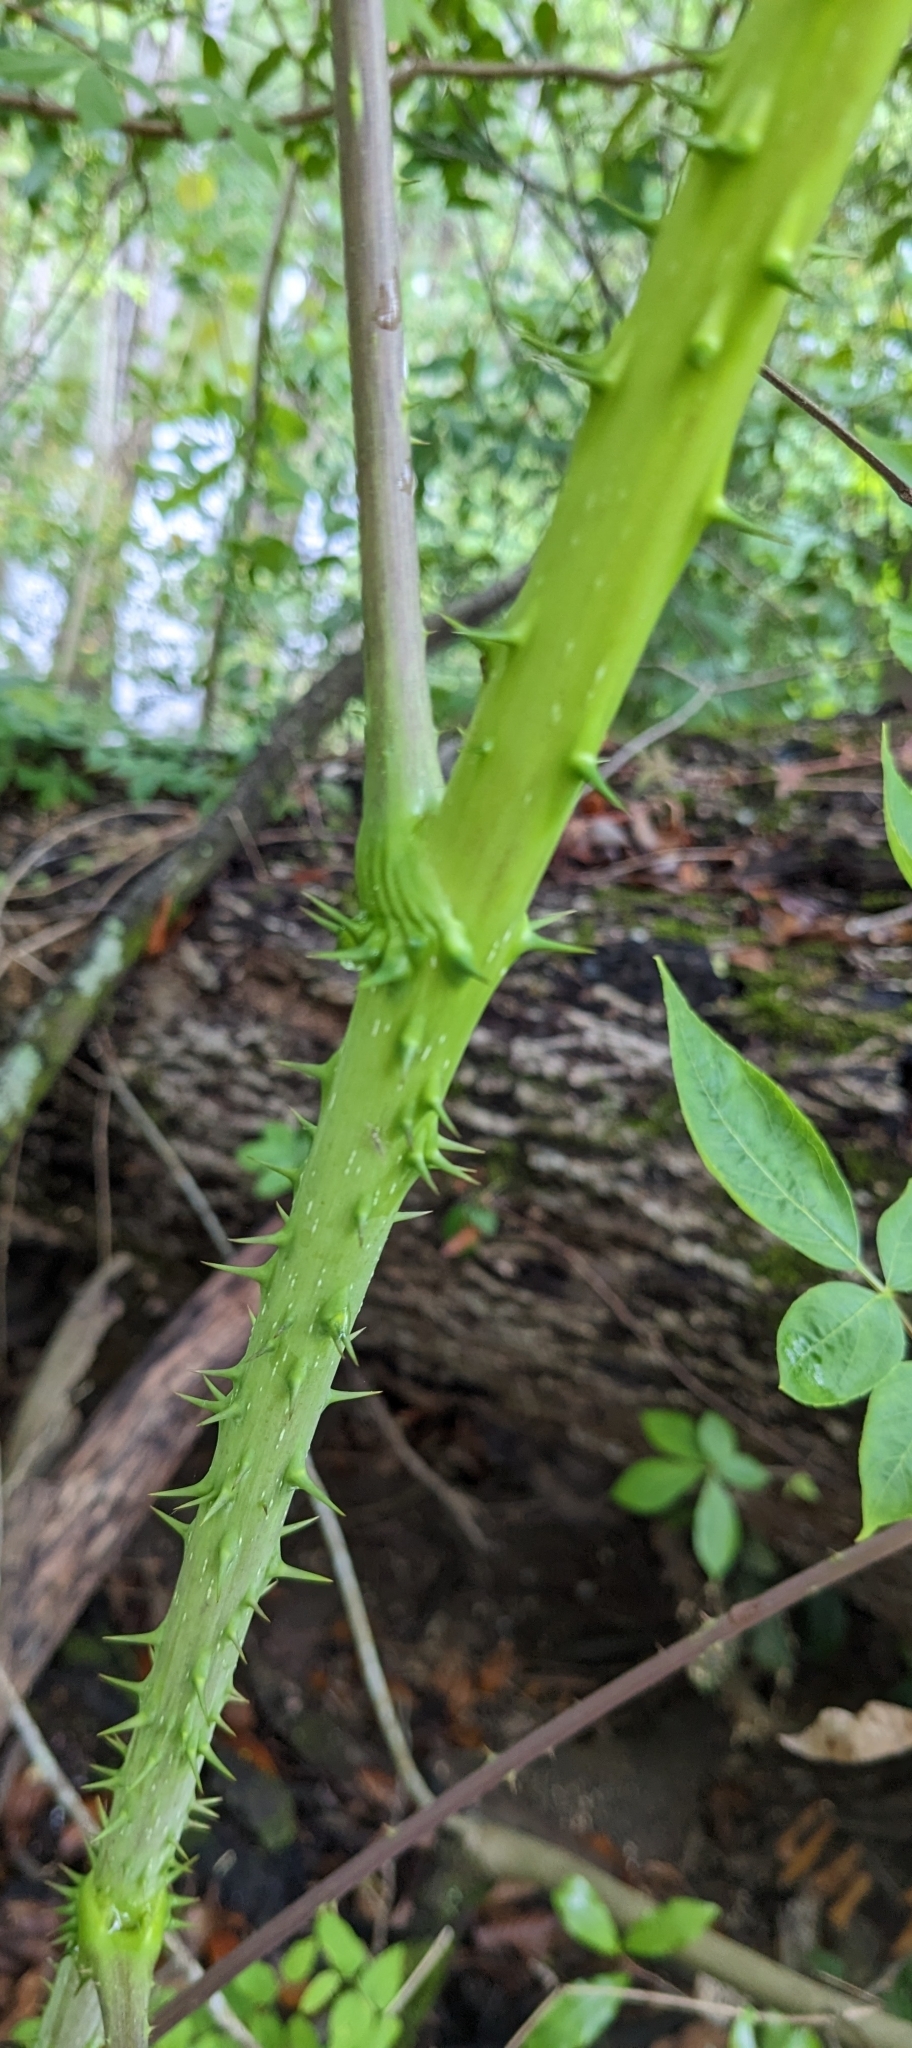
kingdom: Plantae
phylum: Tracheophyta
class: Magnoliopsida
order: Apiales
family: Araliaceae
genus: Aralia
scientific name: Aralia spinosa
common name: Hercules'-club
